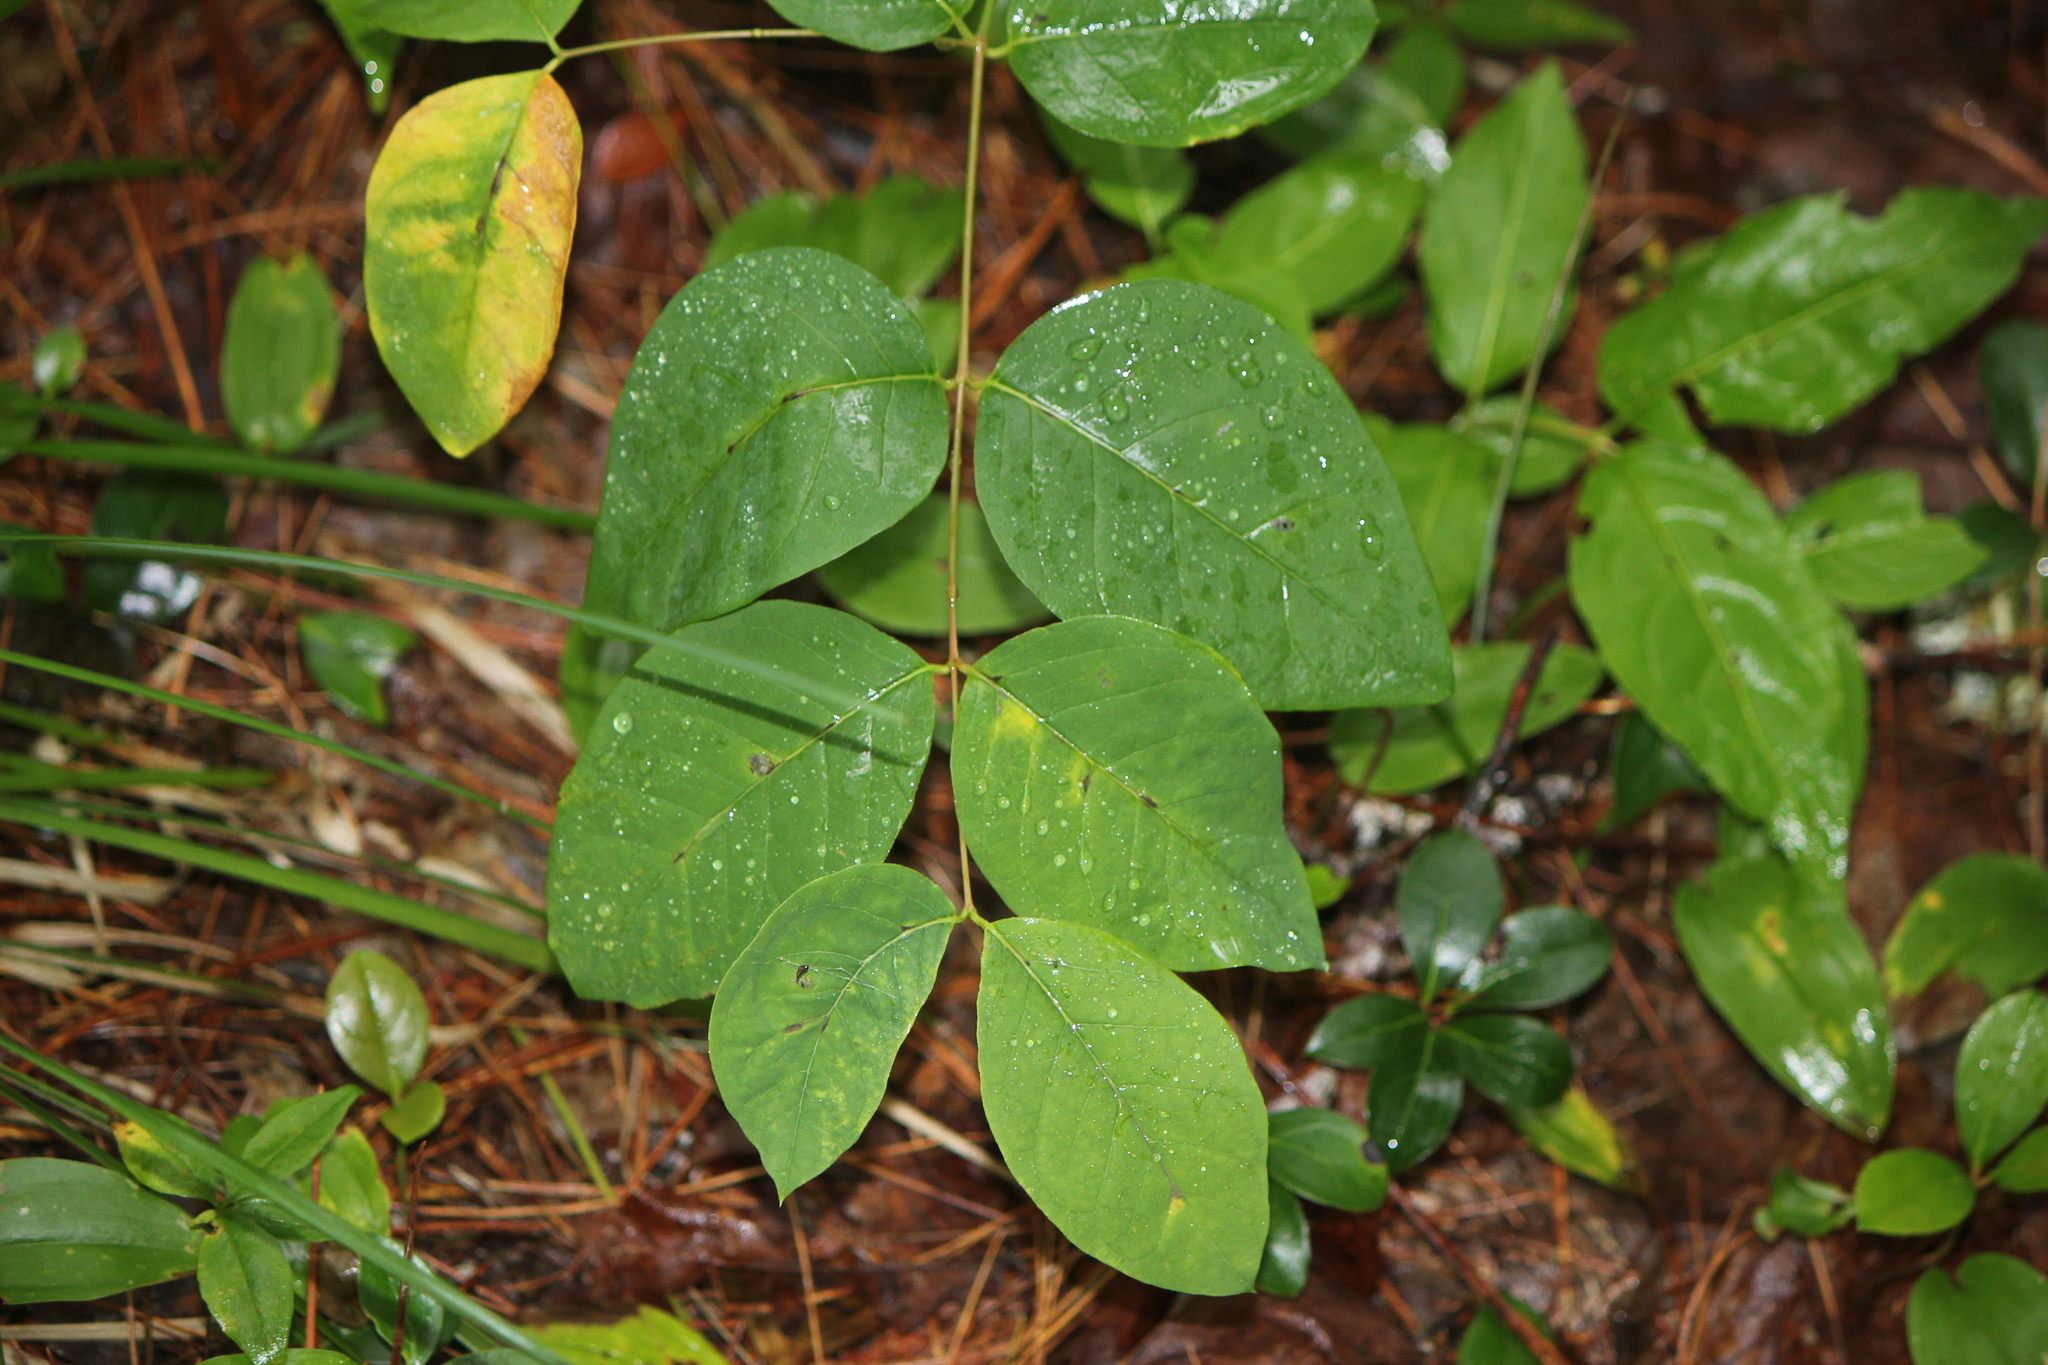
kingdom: Plantae
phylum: Tracheophyta
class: Magnoliopsida
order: Gentianales
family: Apocynaceae
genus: Apocynum
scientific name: Apocynum androsaemifolium
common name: Spreading dogbane
